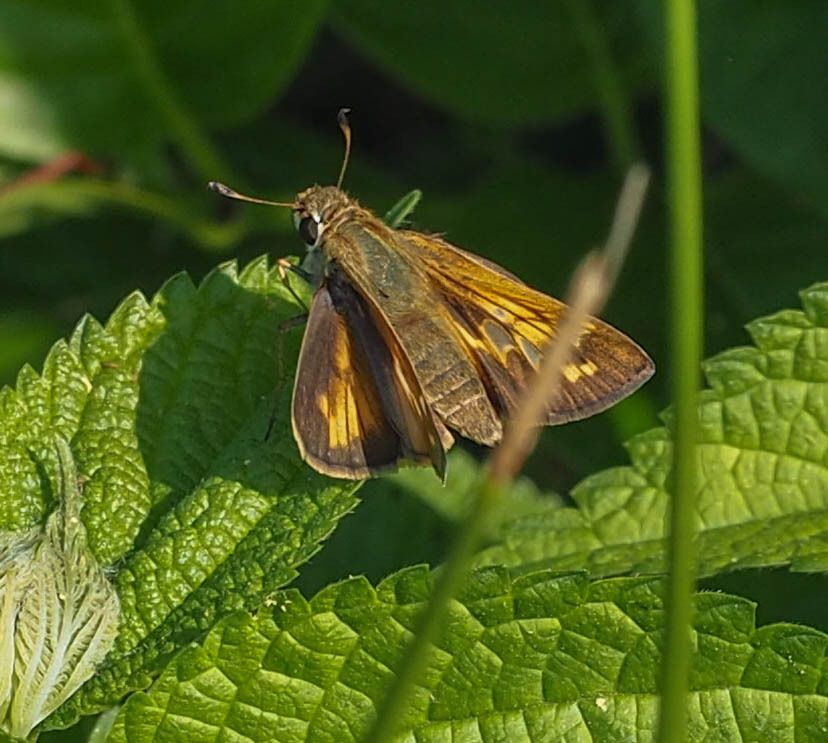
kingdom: Animalia
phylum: Arthropoda
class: Insecta
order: Lepidoptera
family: Hesperiidae
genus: Atalopedes
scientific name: Atalopedes
